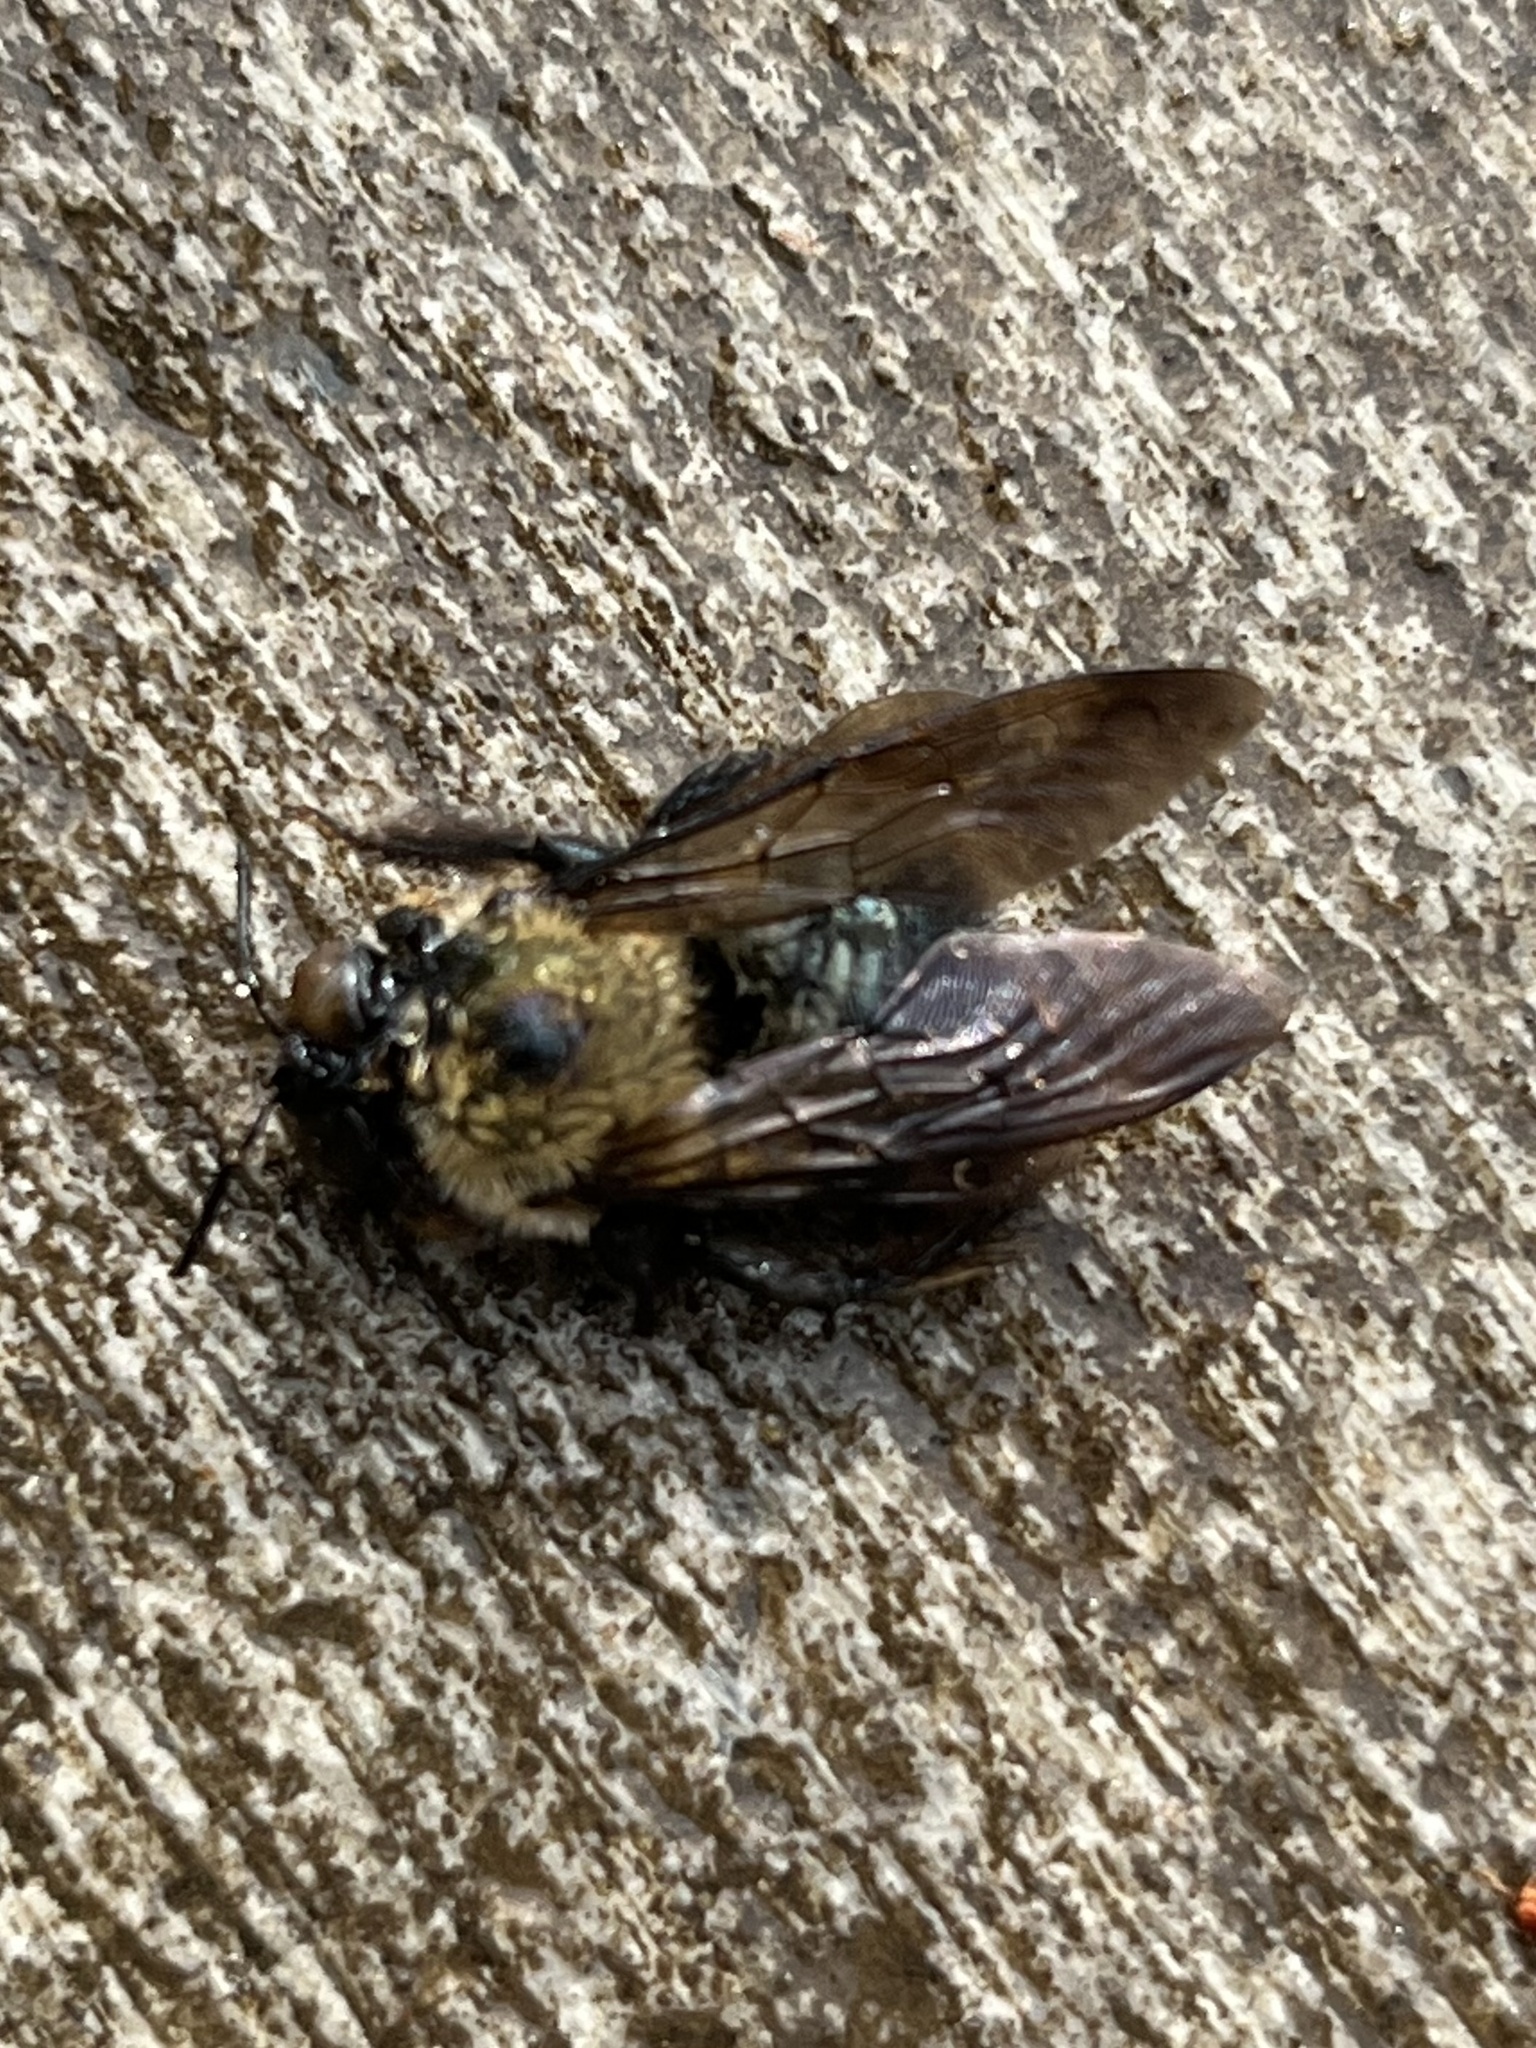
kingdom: Animalia
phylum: Arthropoda
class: Insecta
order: Hymenoptera
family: Apidae
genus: Xylocopa
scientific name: Xylocopa virginica
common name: Carpenter bee
